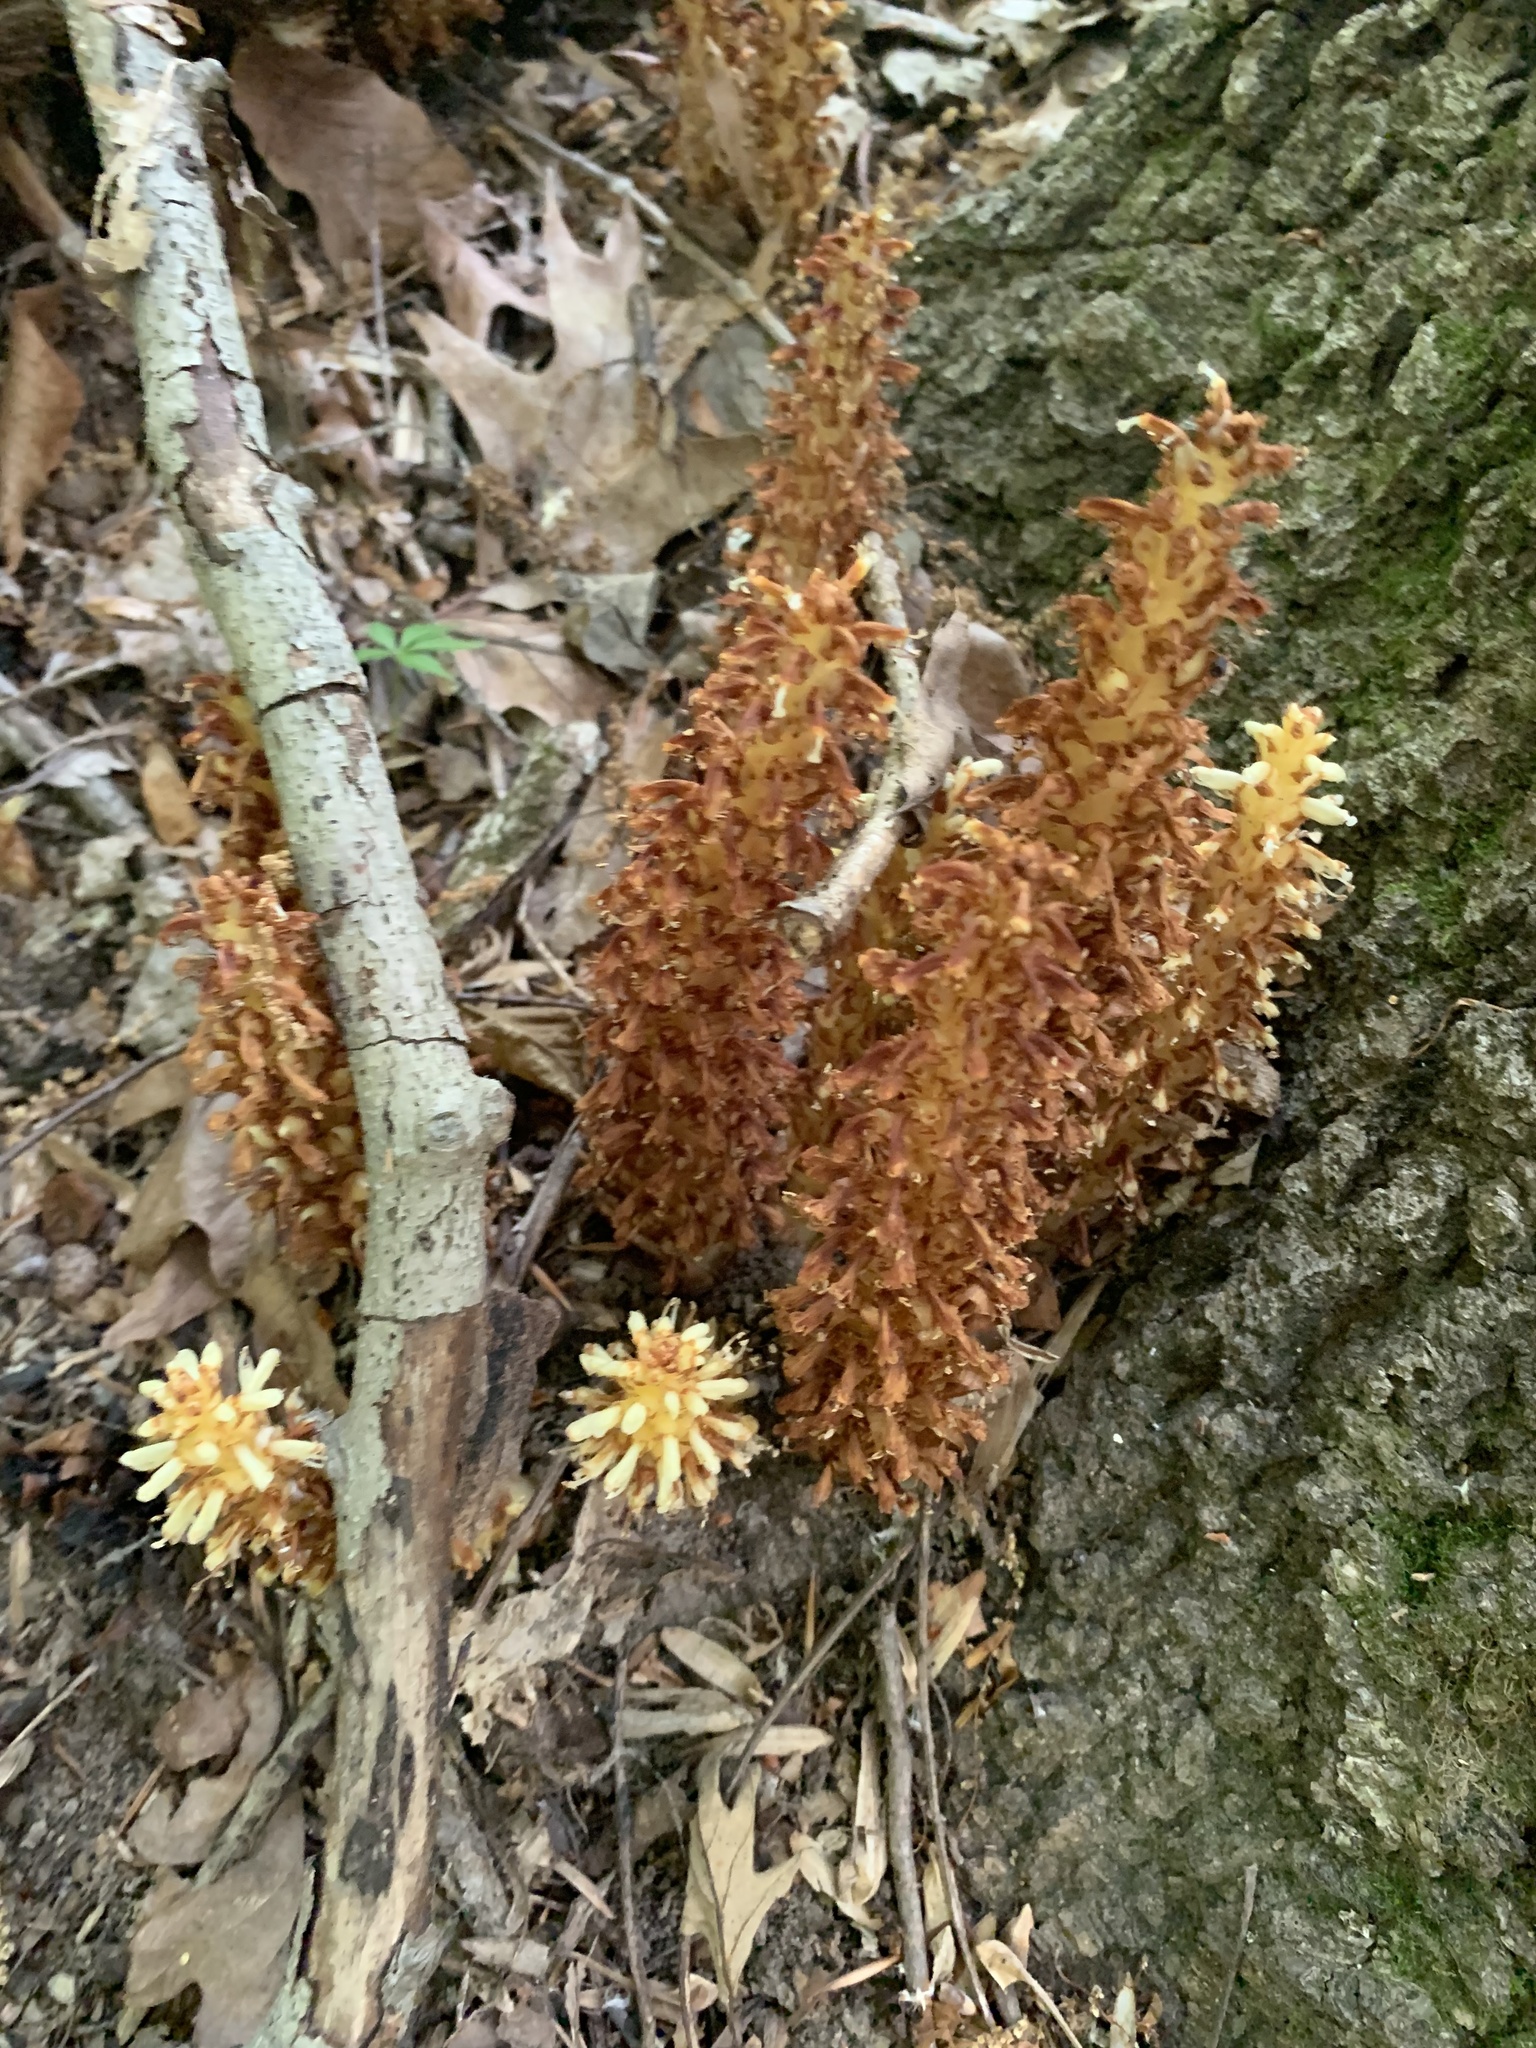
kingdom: Plantae
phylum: Tracheophyta
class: Magnoliopsida
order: Lamiales
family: Orobanchaceae
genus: Conopholis
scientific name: Conopholis americana
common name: American cancer-root
